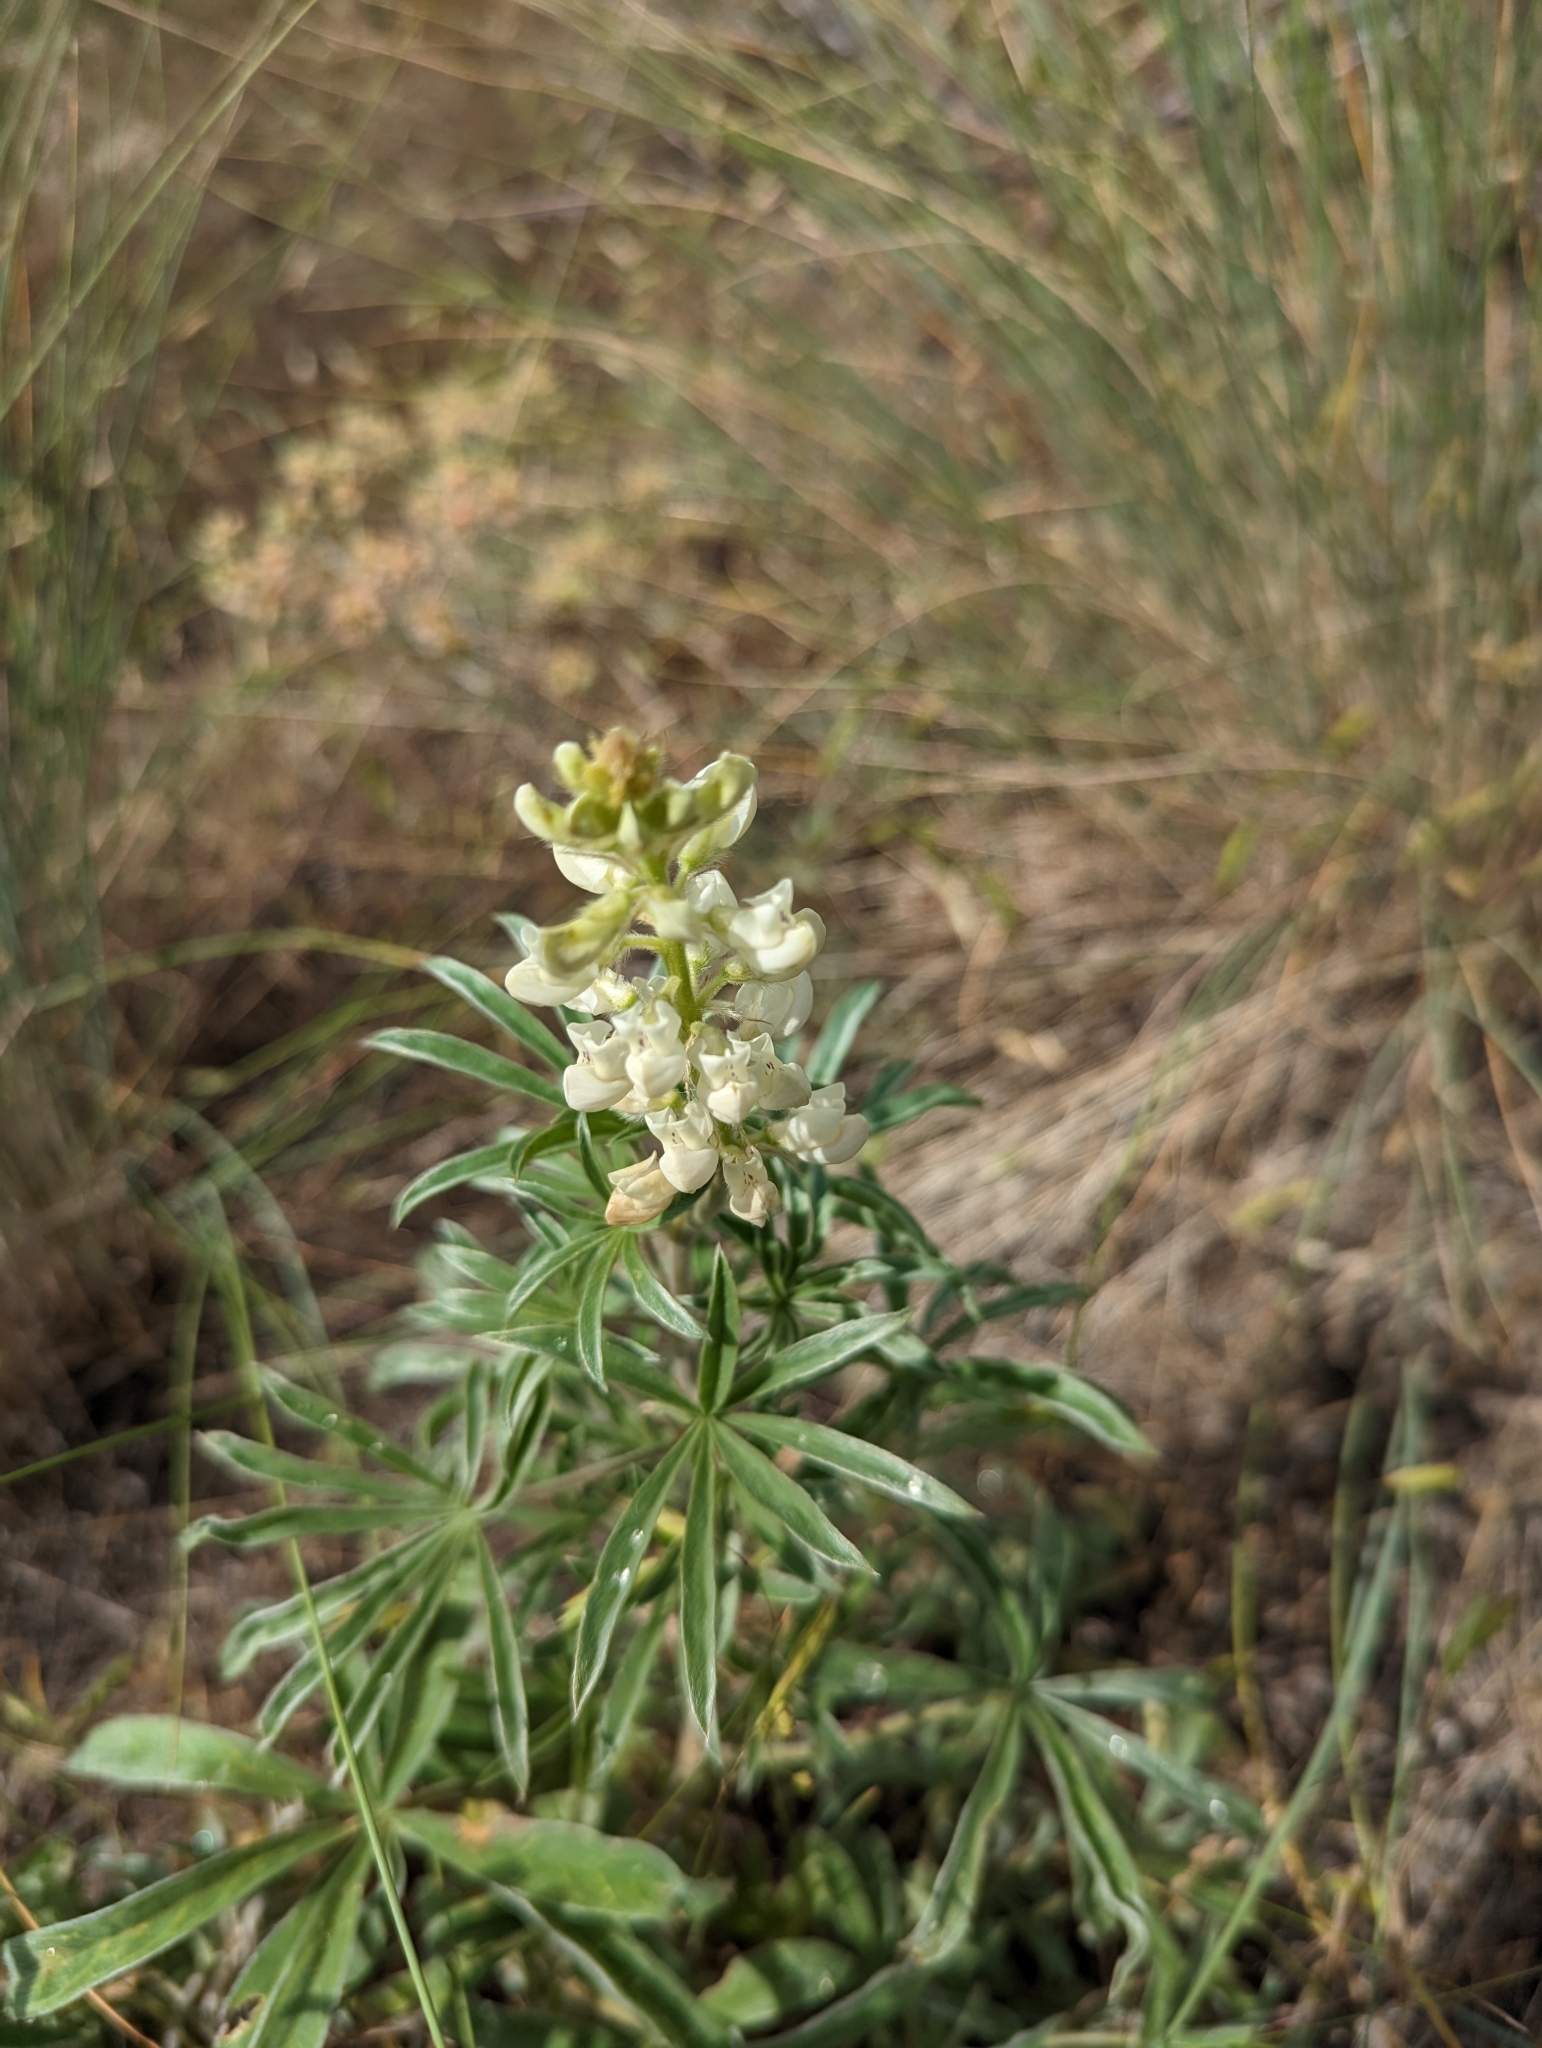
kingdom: Plantae
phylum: Tracheophyta
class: Magnoliopsida
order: Fabales
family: Fabaceae
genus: Lupinus
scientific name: Lupinus sulphureus
